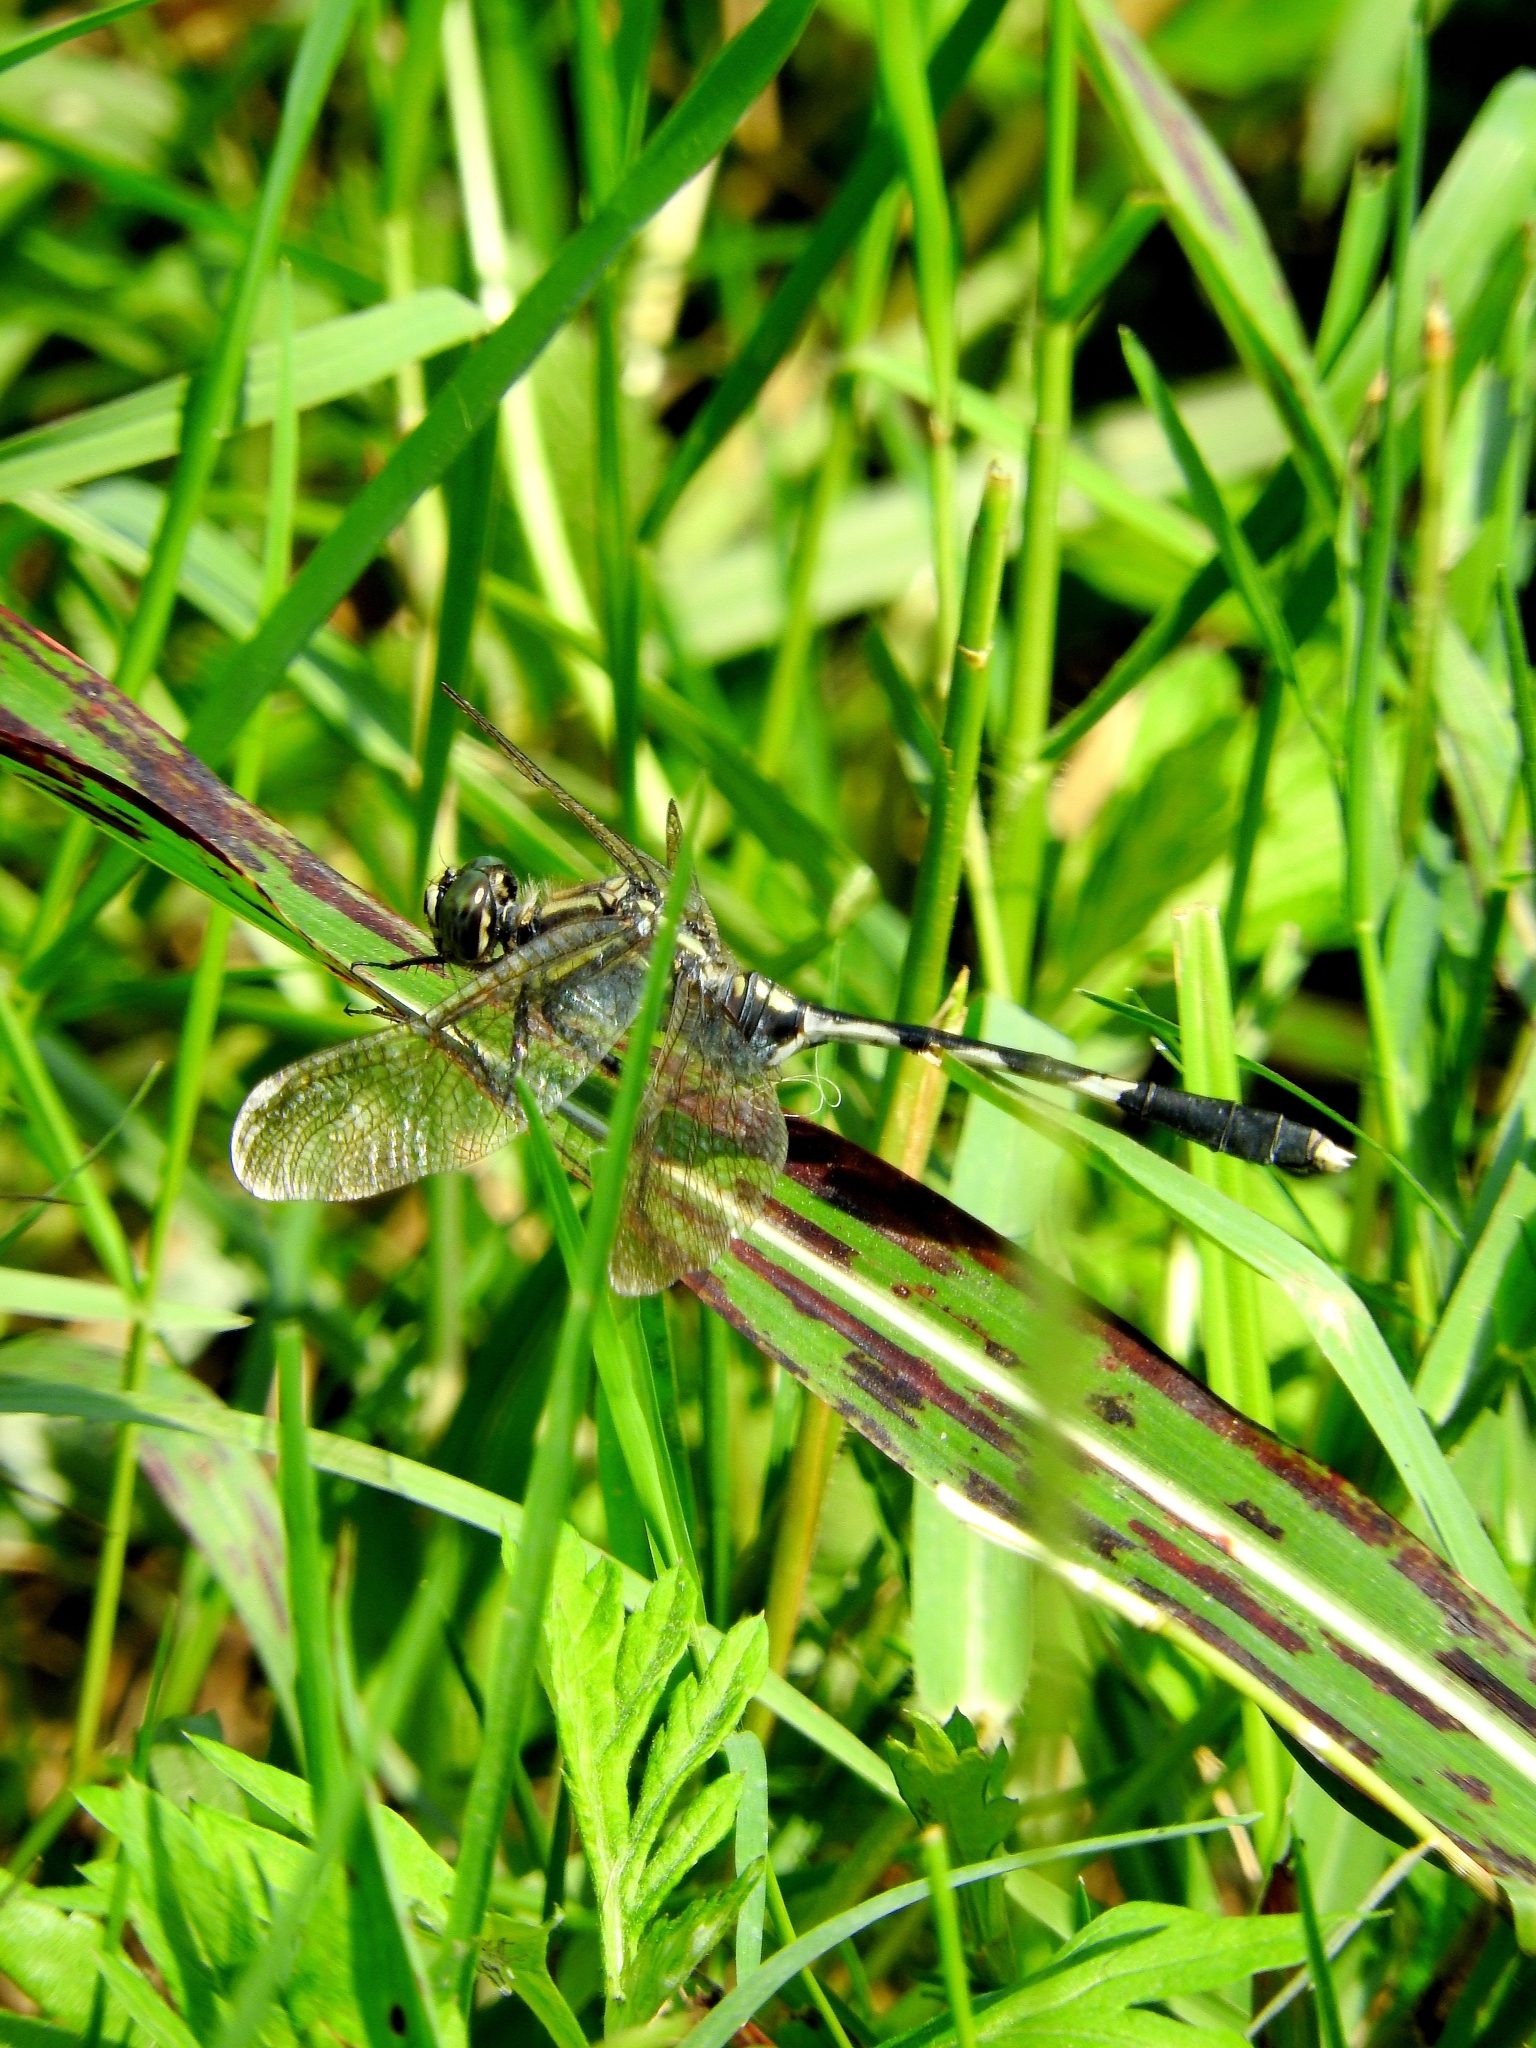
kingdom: Animalia
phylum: Arthropoda
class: Insecta
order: Odonata
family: Libellulidae
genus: Orthetrum
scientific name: Orthetrum sabina
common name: Slender skimmer
